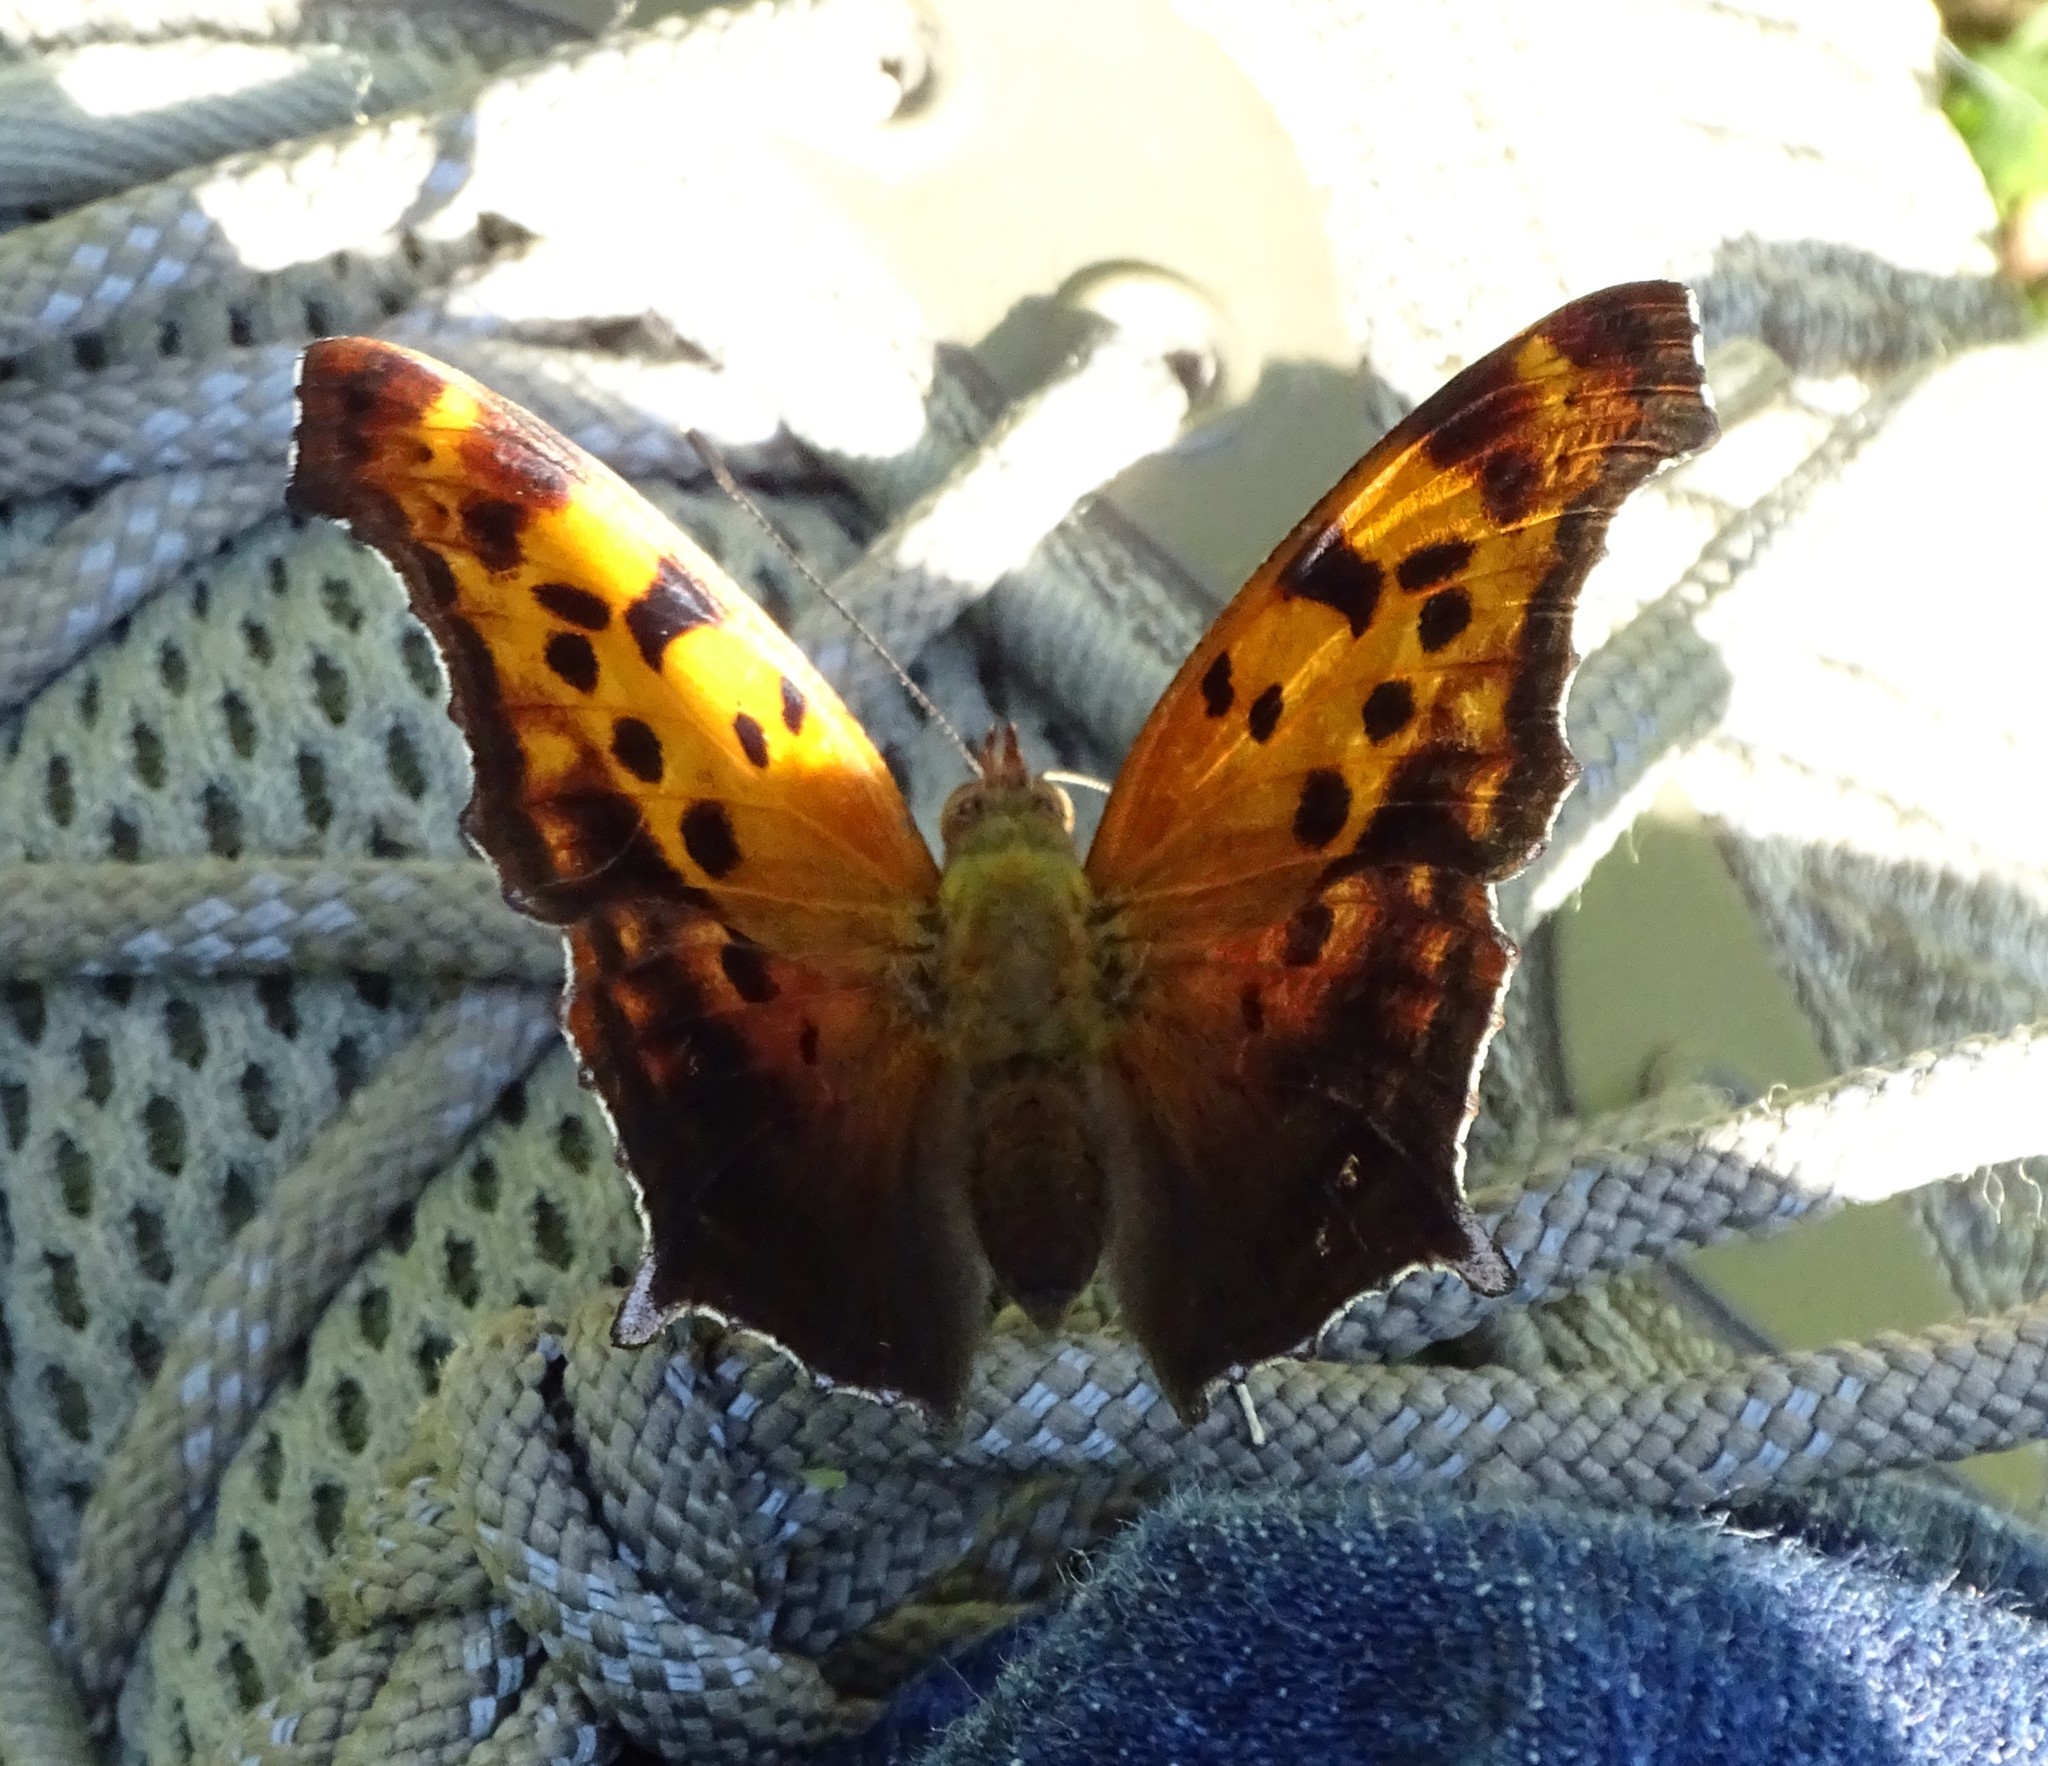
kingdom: Animalia
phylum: Arthropoda
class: Insecta
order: Lepidoptera
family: Nymphalidae
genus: Polygonia
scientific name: Polygonia interrogationis
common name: Question mark
